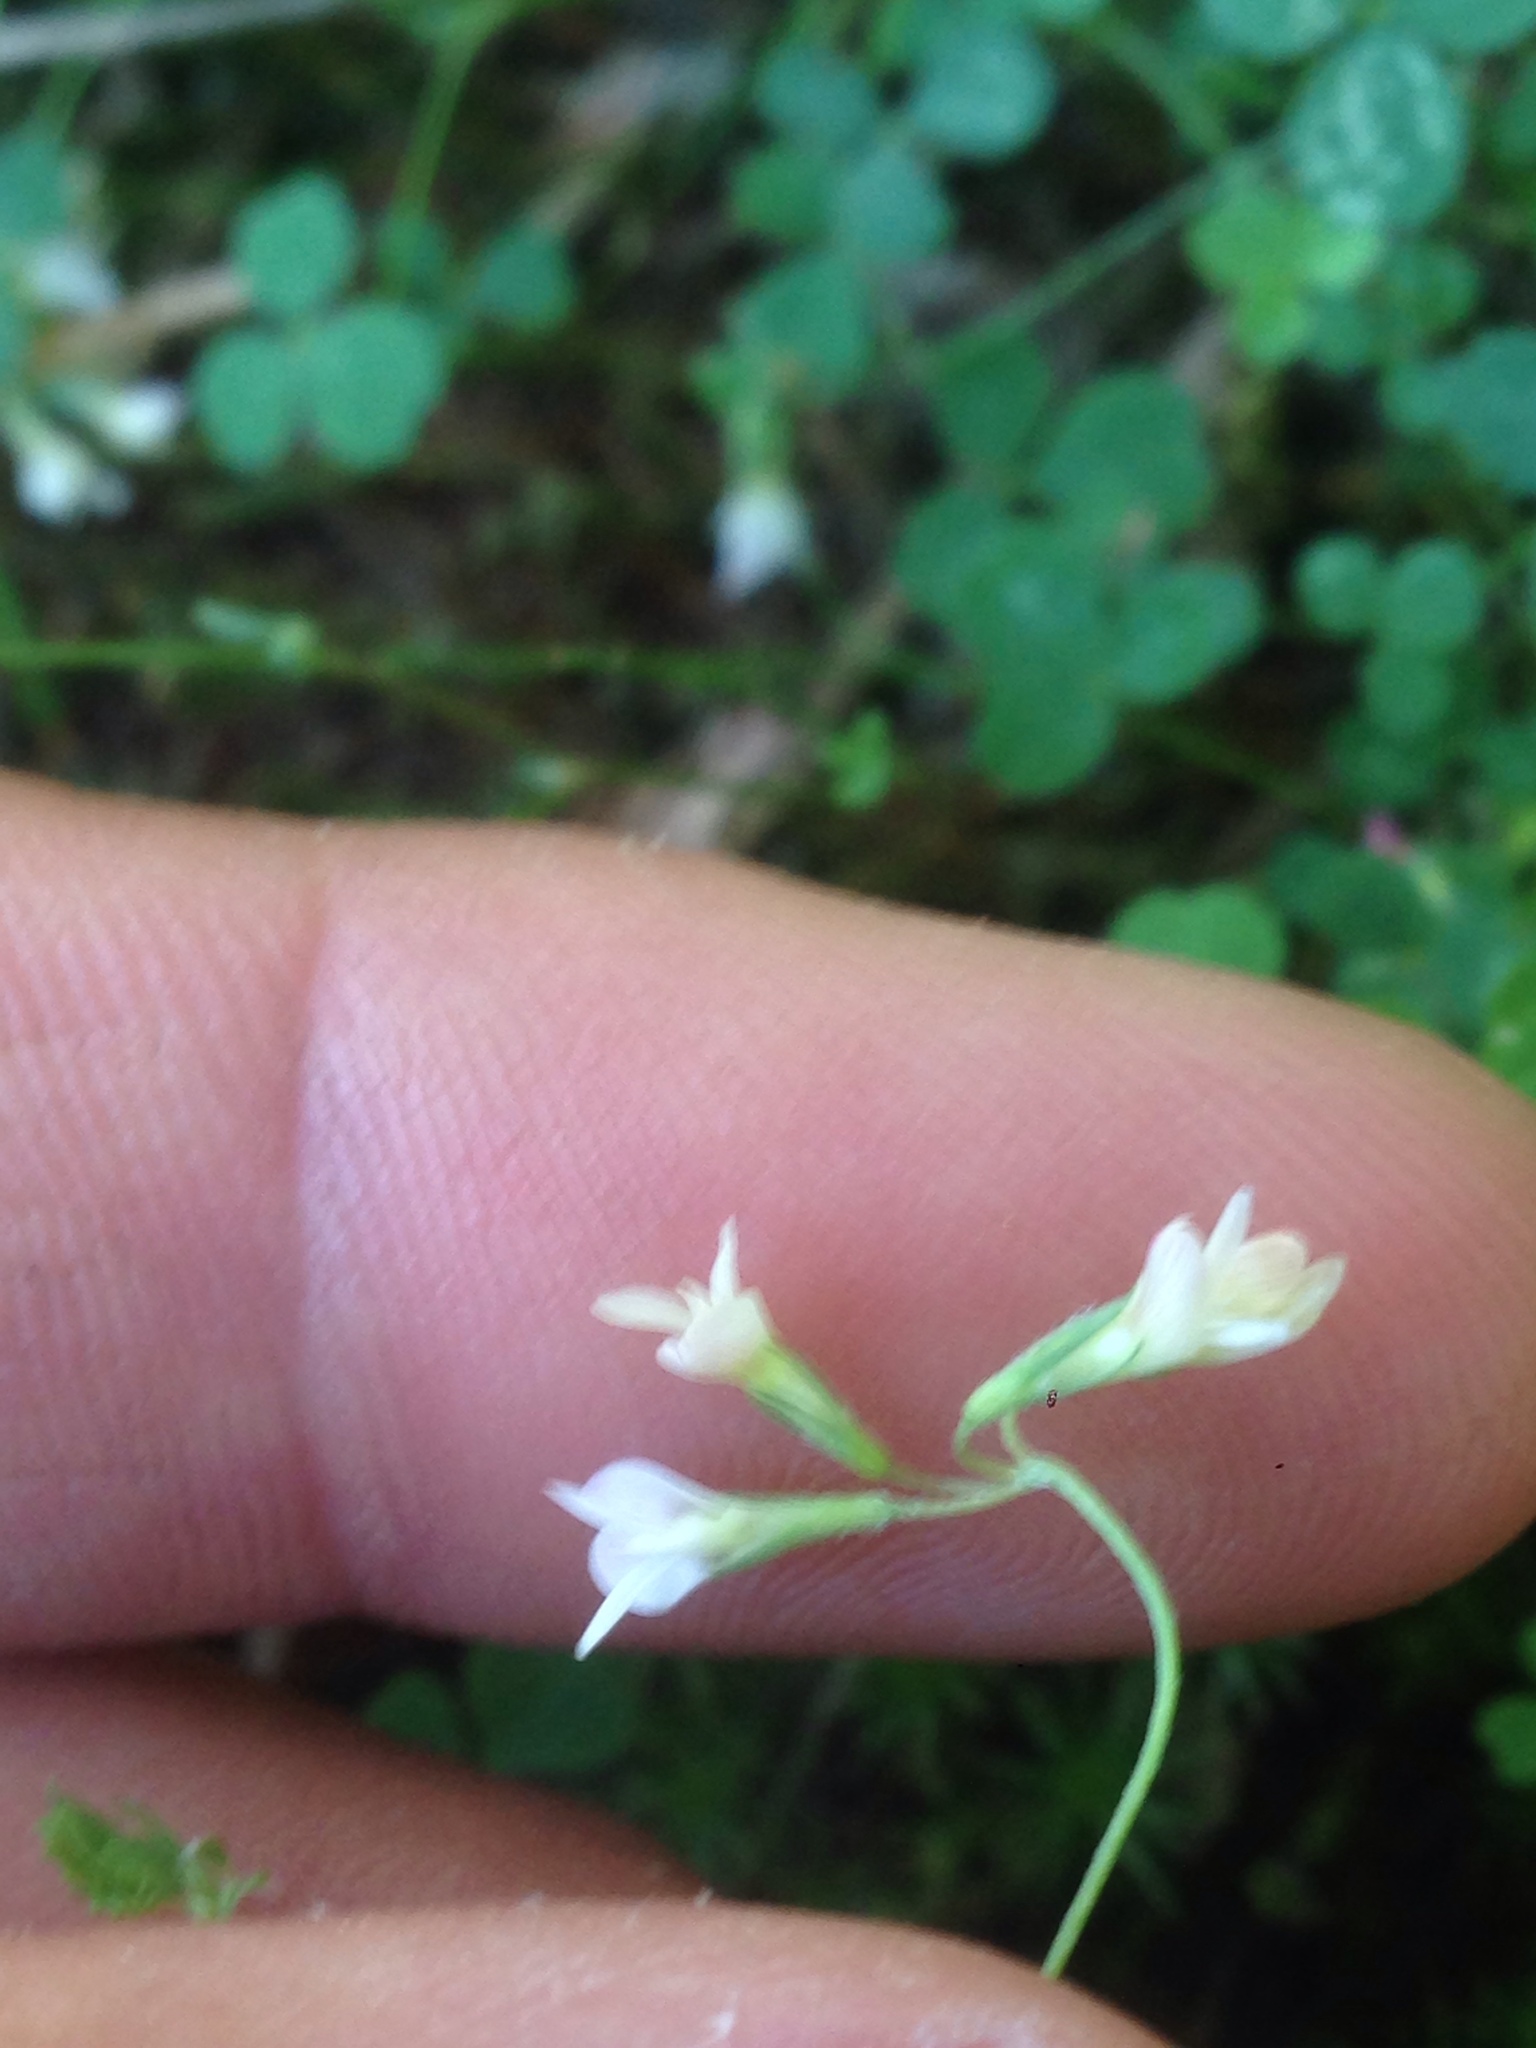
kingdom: Plantae
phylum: Tracheophyta
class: Magnoliopsida
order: Fabales
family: Fabaceae
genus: Trifolium
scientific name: Trifolium breweri
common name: Forest clover
